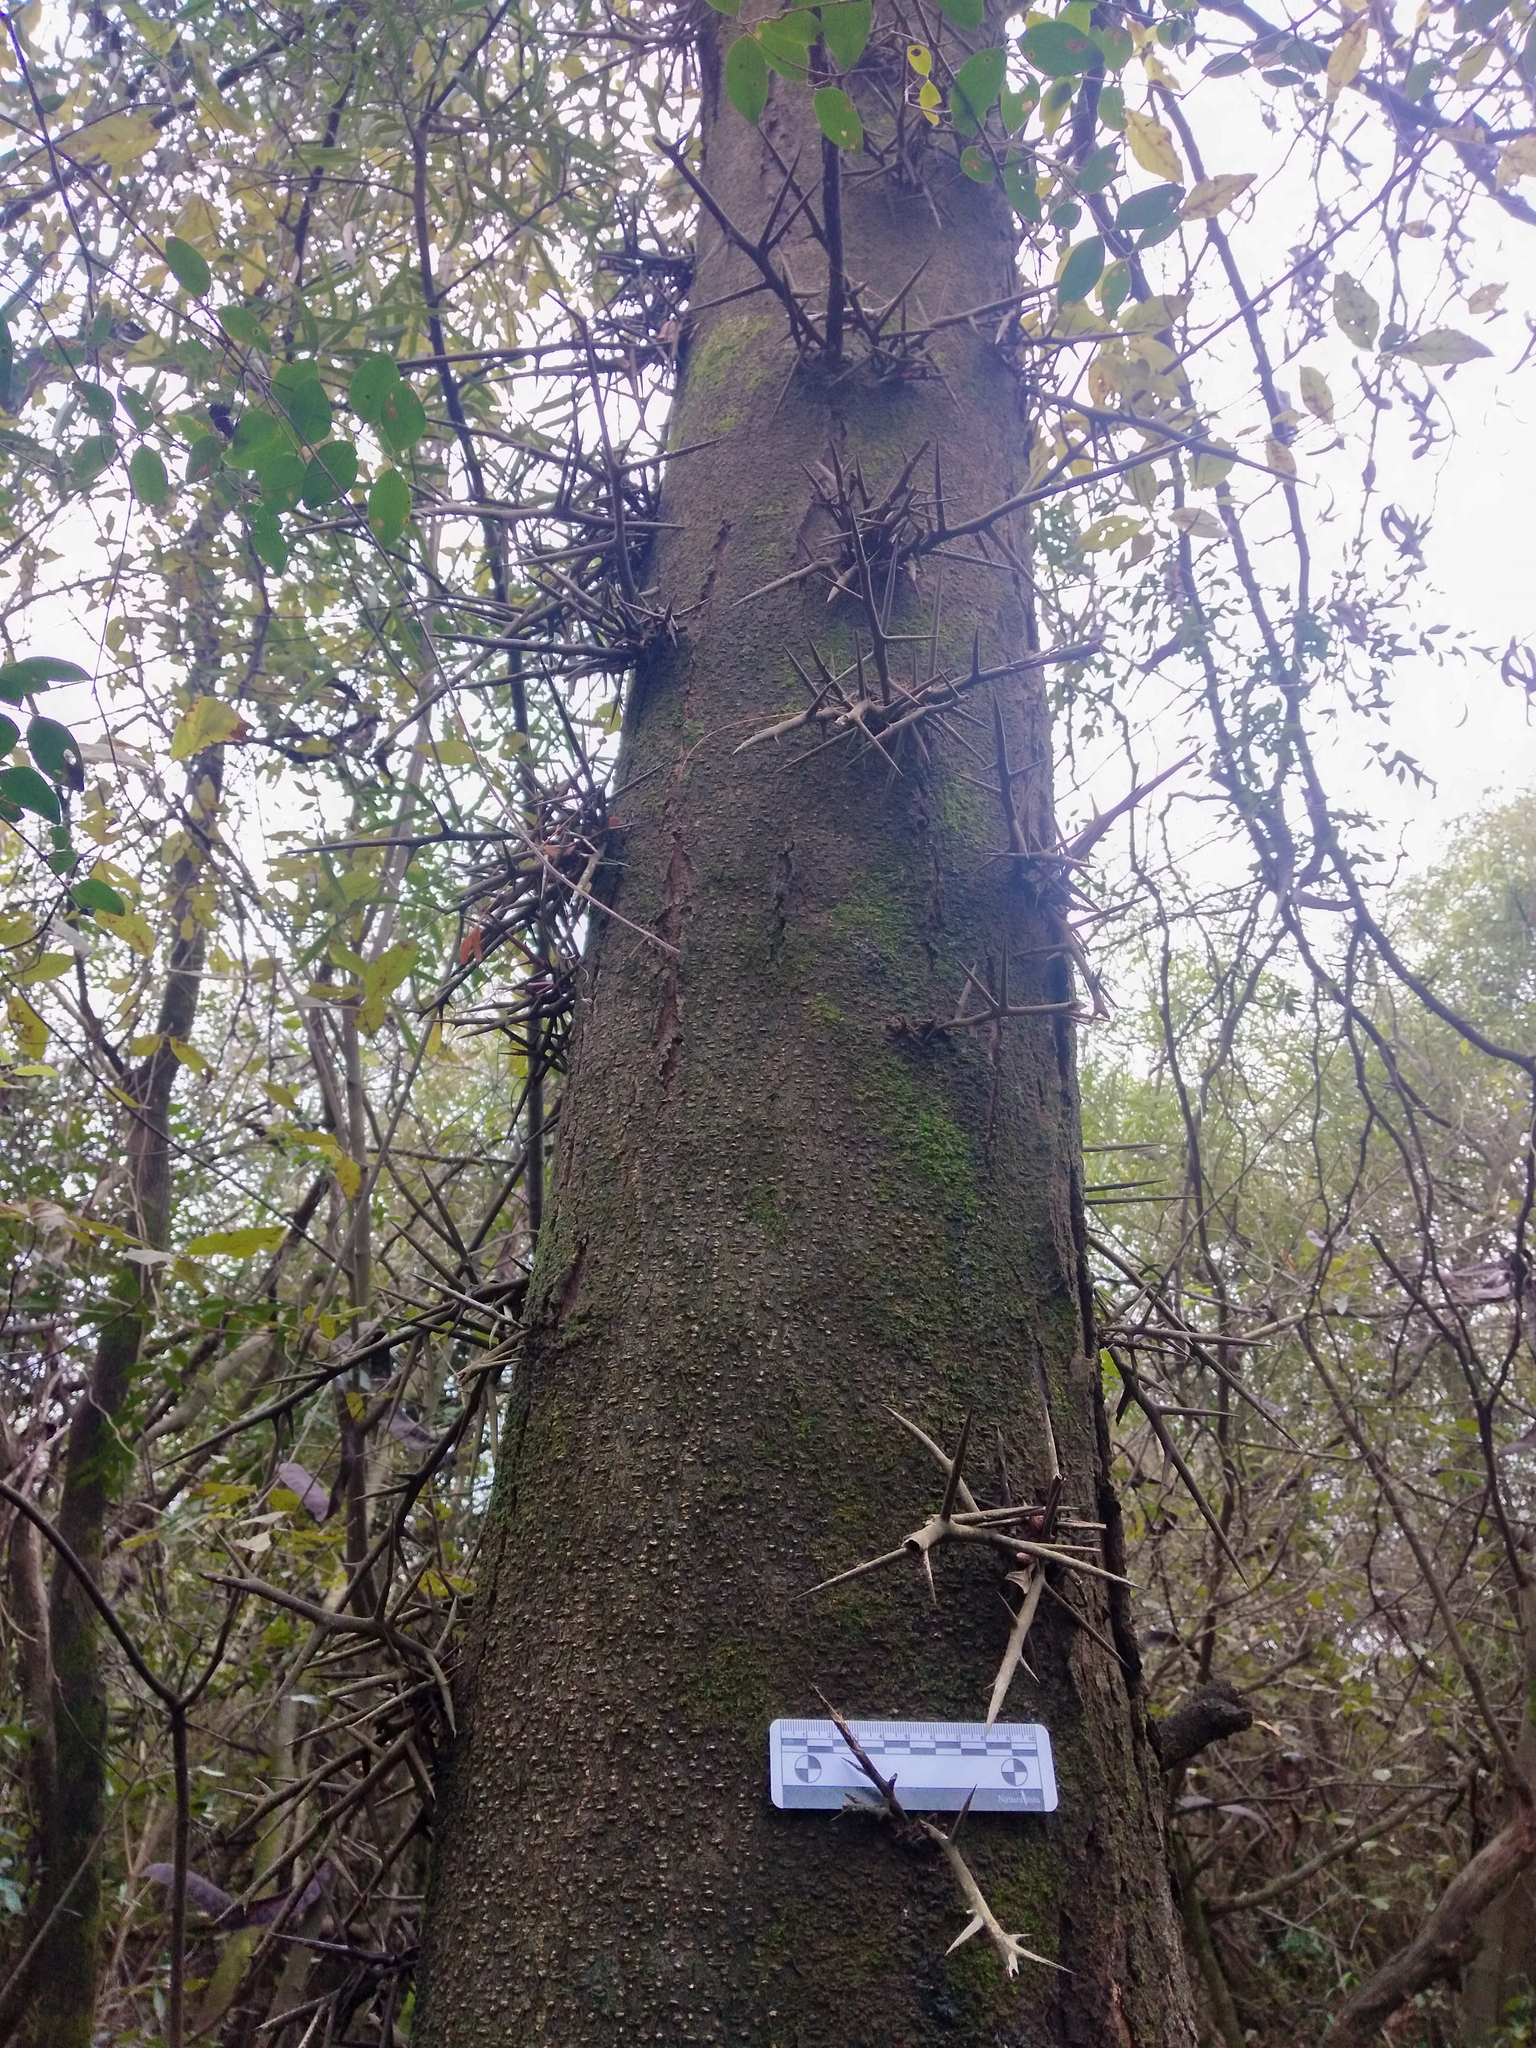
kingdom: Plantae
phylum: Tracheophyta
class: Magnoliopsida
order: Fabales
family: Fabaceae
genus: Gleditsia
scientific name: Gleditsia triacanthos
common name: Common honeylocust
